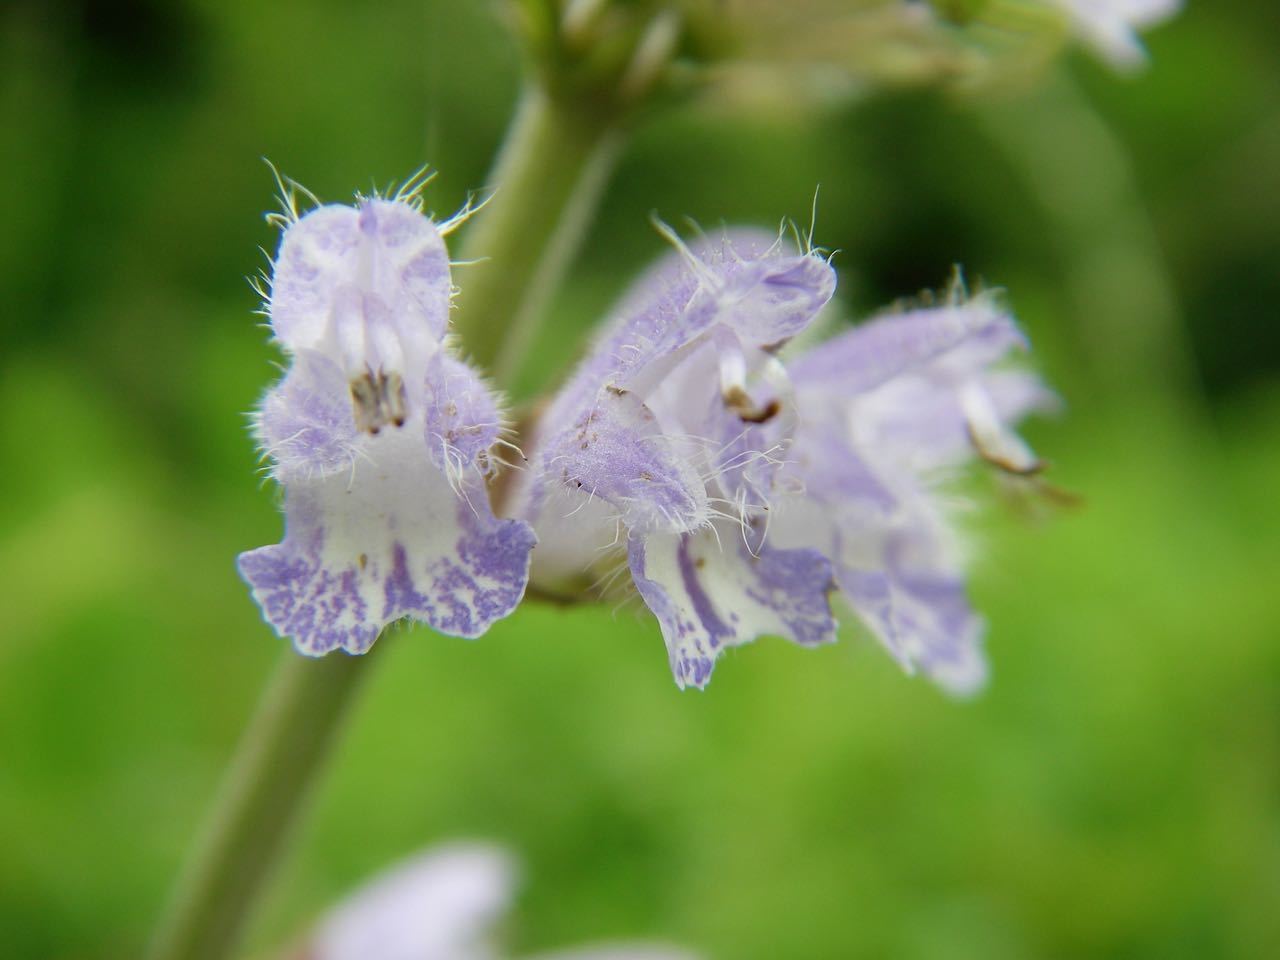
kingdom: Plantae
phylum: Tracheophyta
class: Magnoliopsida
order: Lamiales
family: Lamiaceae
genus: Salvia
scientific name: Salvia japonica
